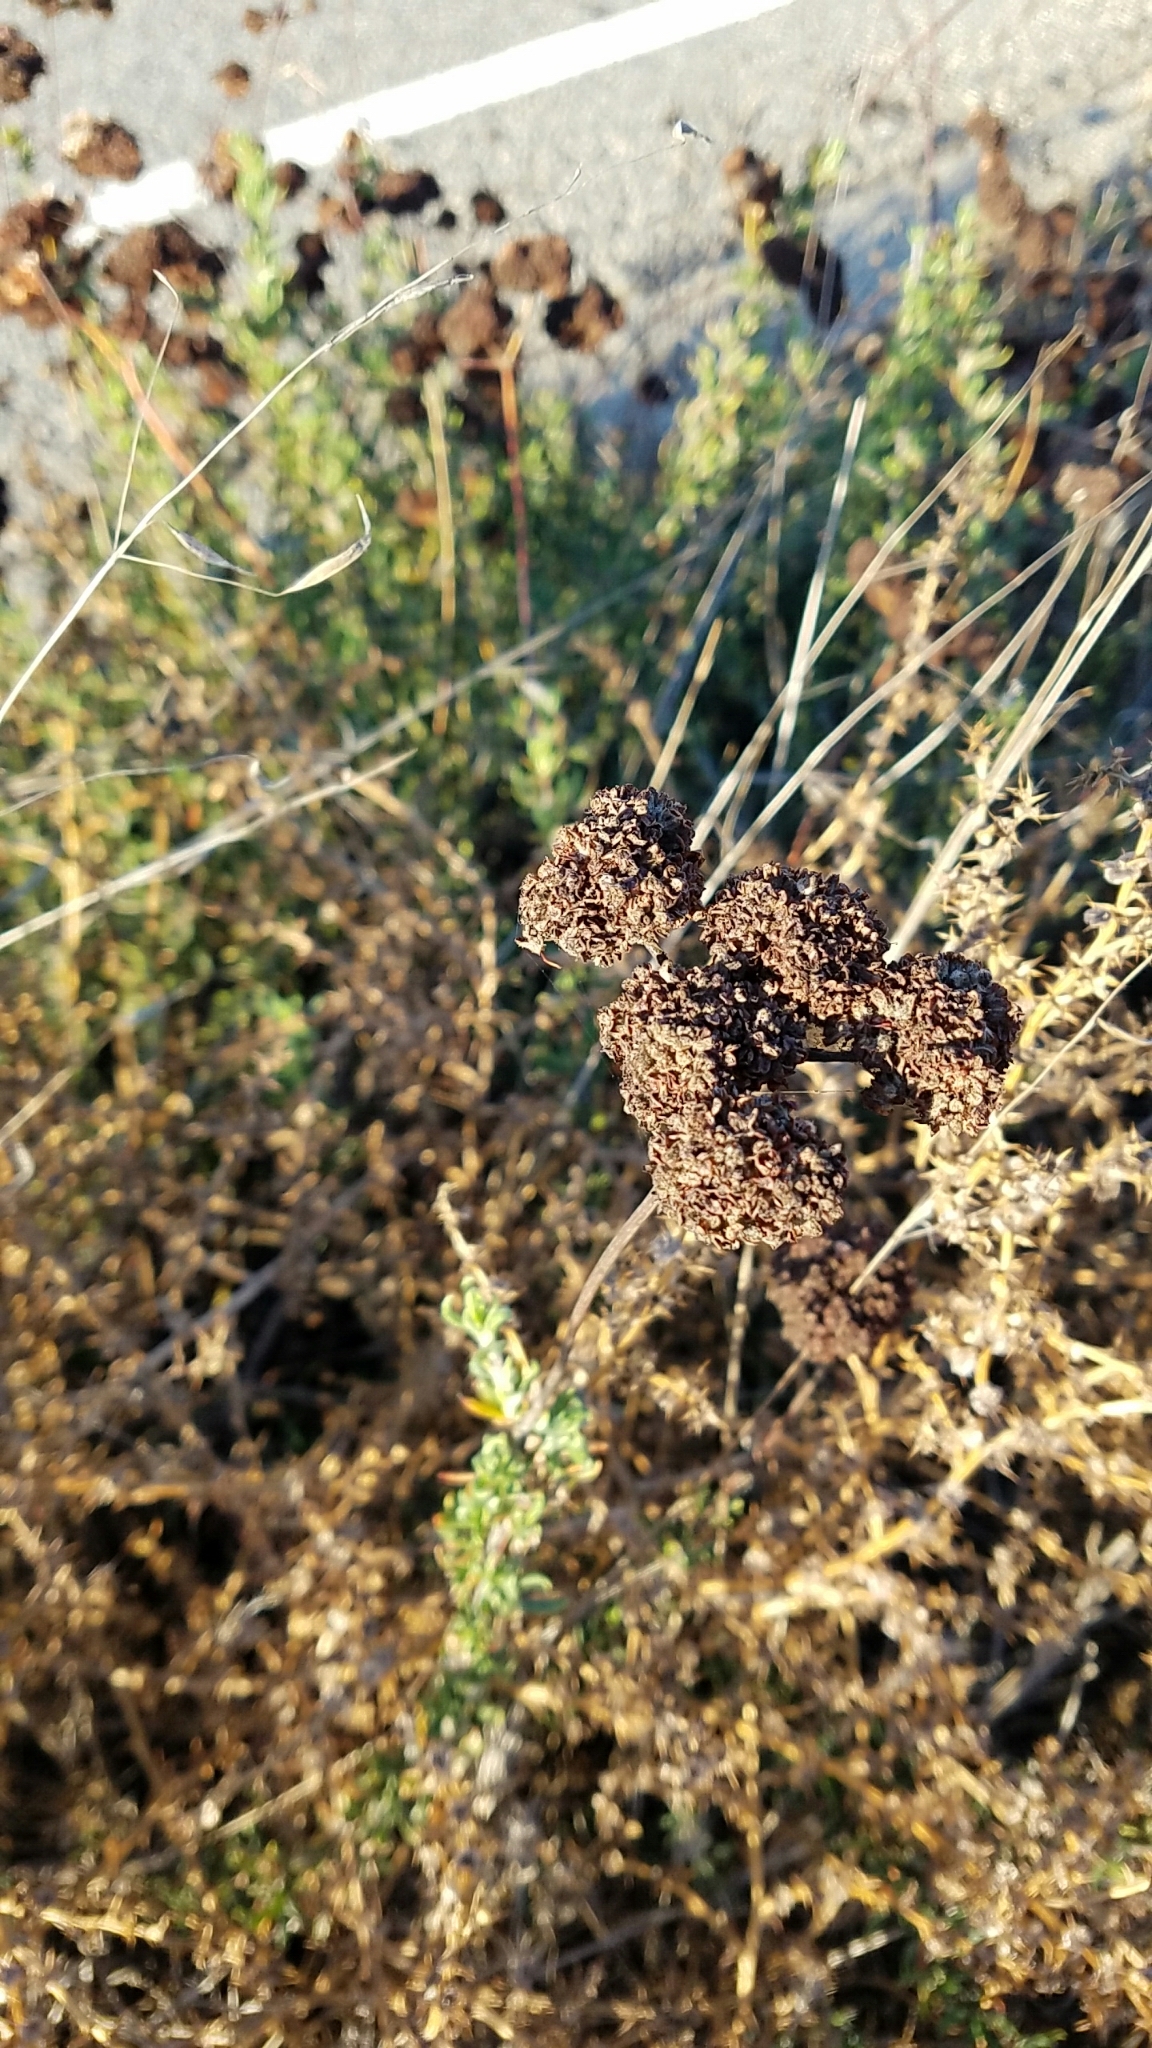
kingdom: Plantae
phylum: Tracheophyta
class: Magnoliopsida
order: Caryophyllales
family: Polygonaceae
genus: Eriogonum
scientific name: Eriogonum fasciculatum
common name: California wild buckwheat
